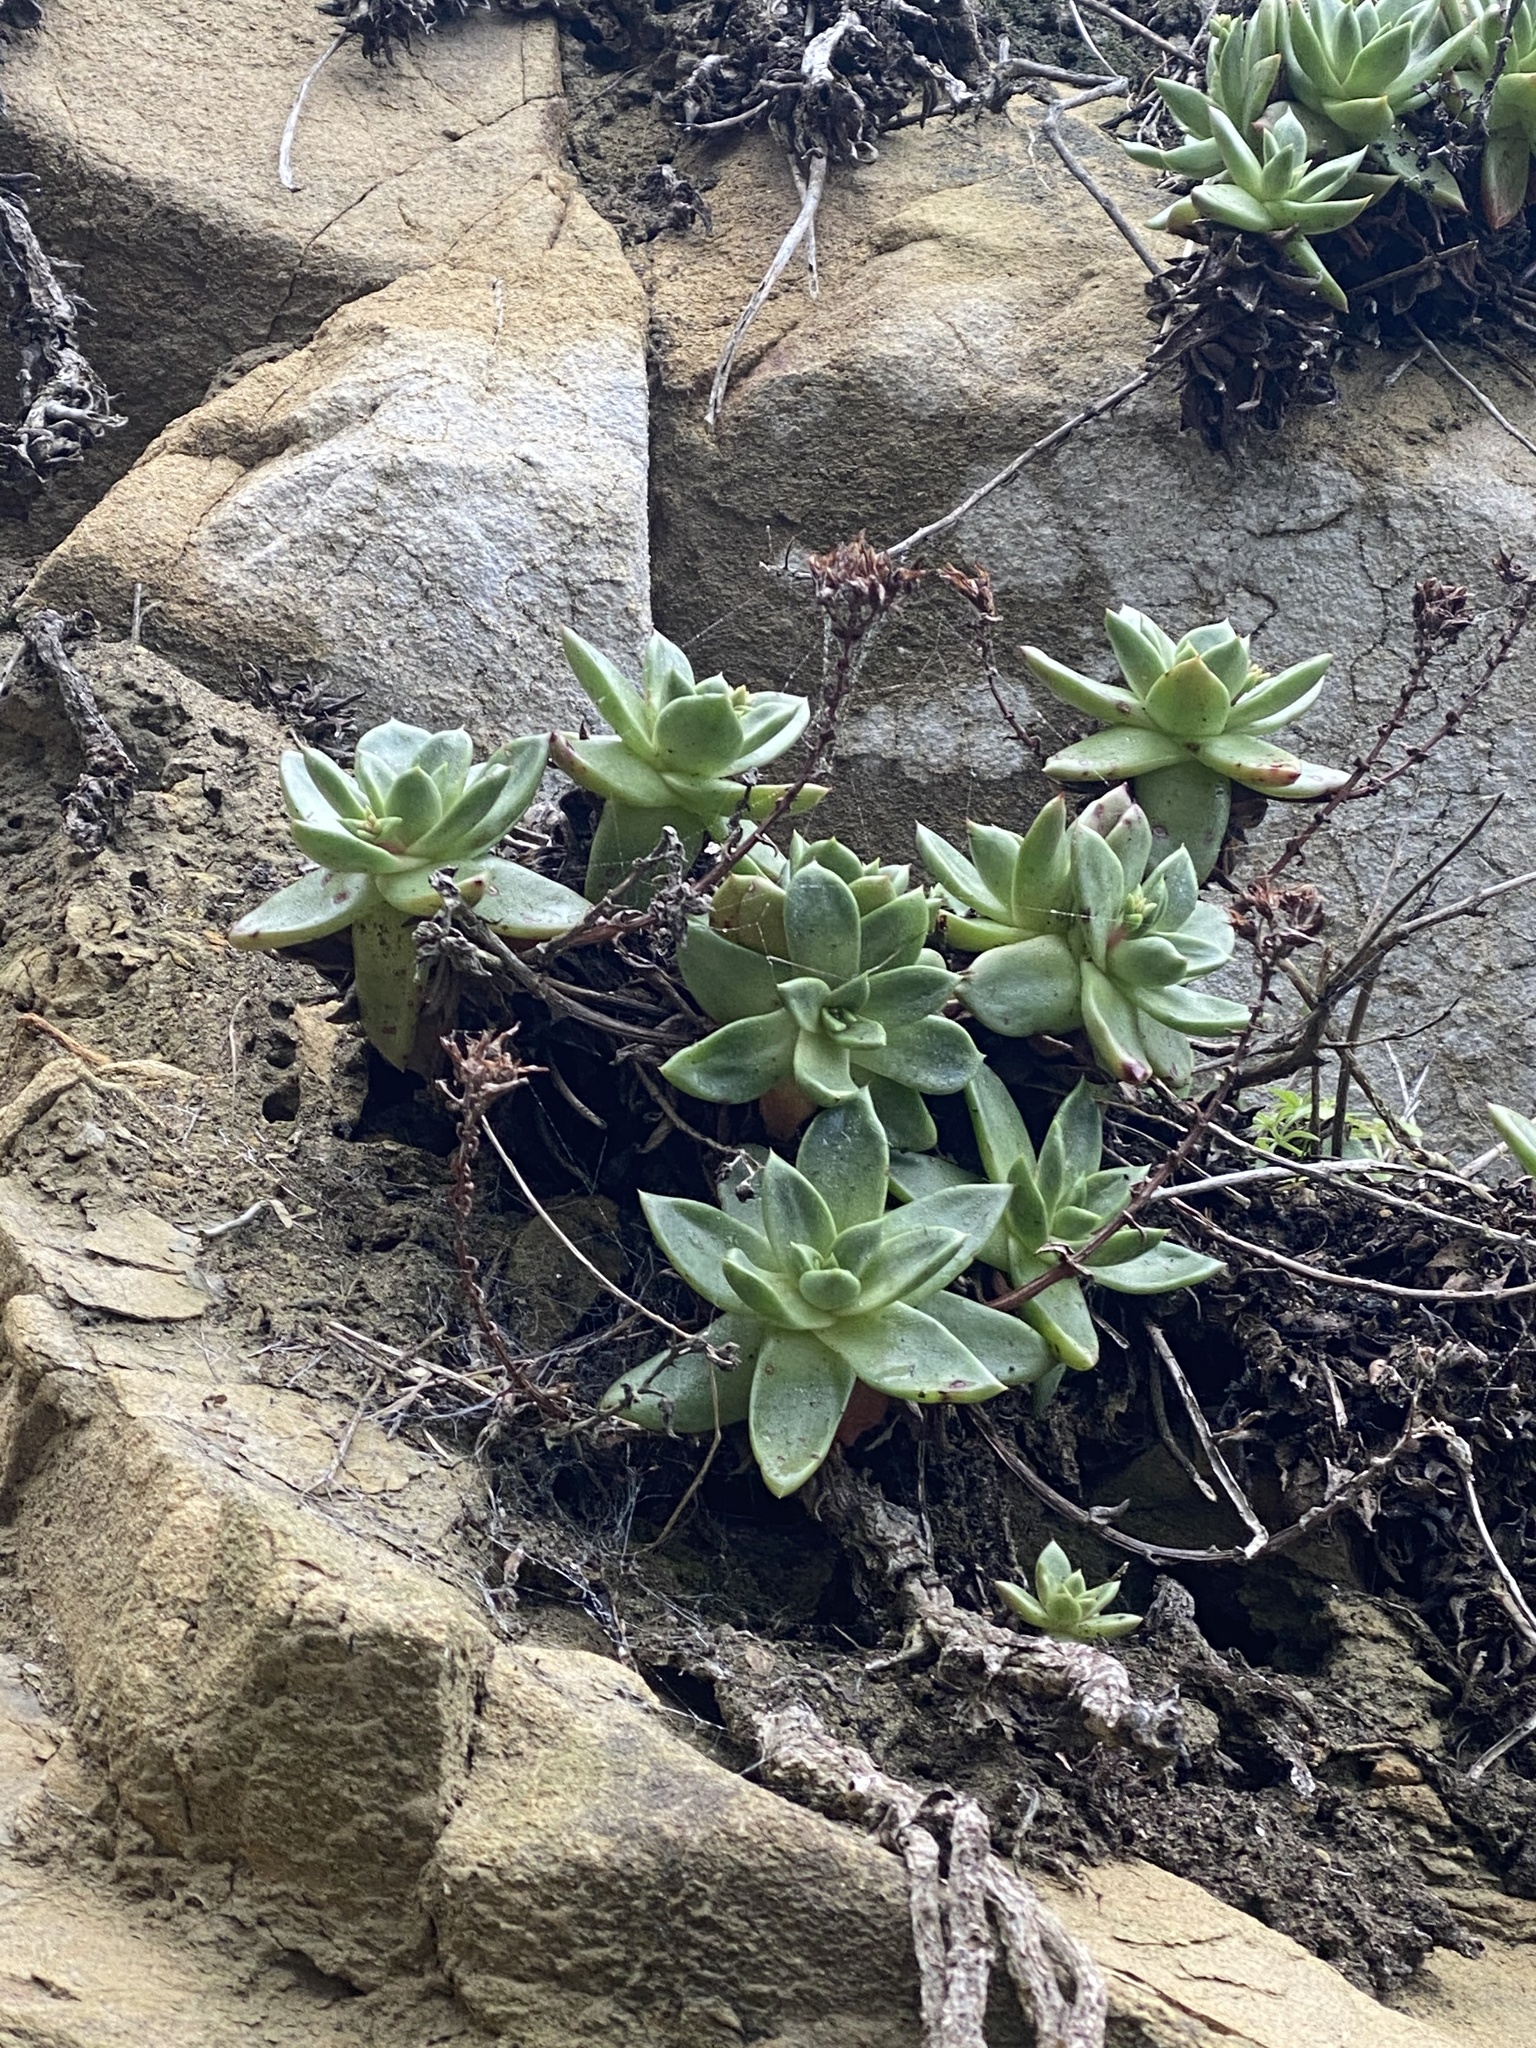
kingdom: Plantae
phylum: Tracheophyta
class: Magnoliopsida
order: Saxifragales
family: Crassulaceae
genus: Dudleya
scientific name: Dudleya farinosa
